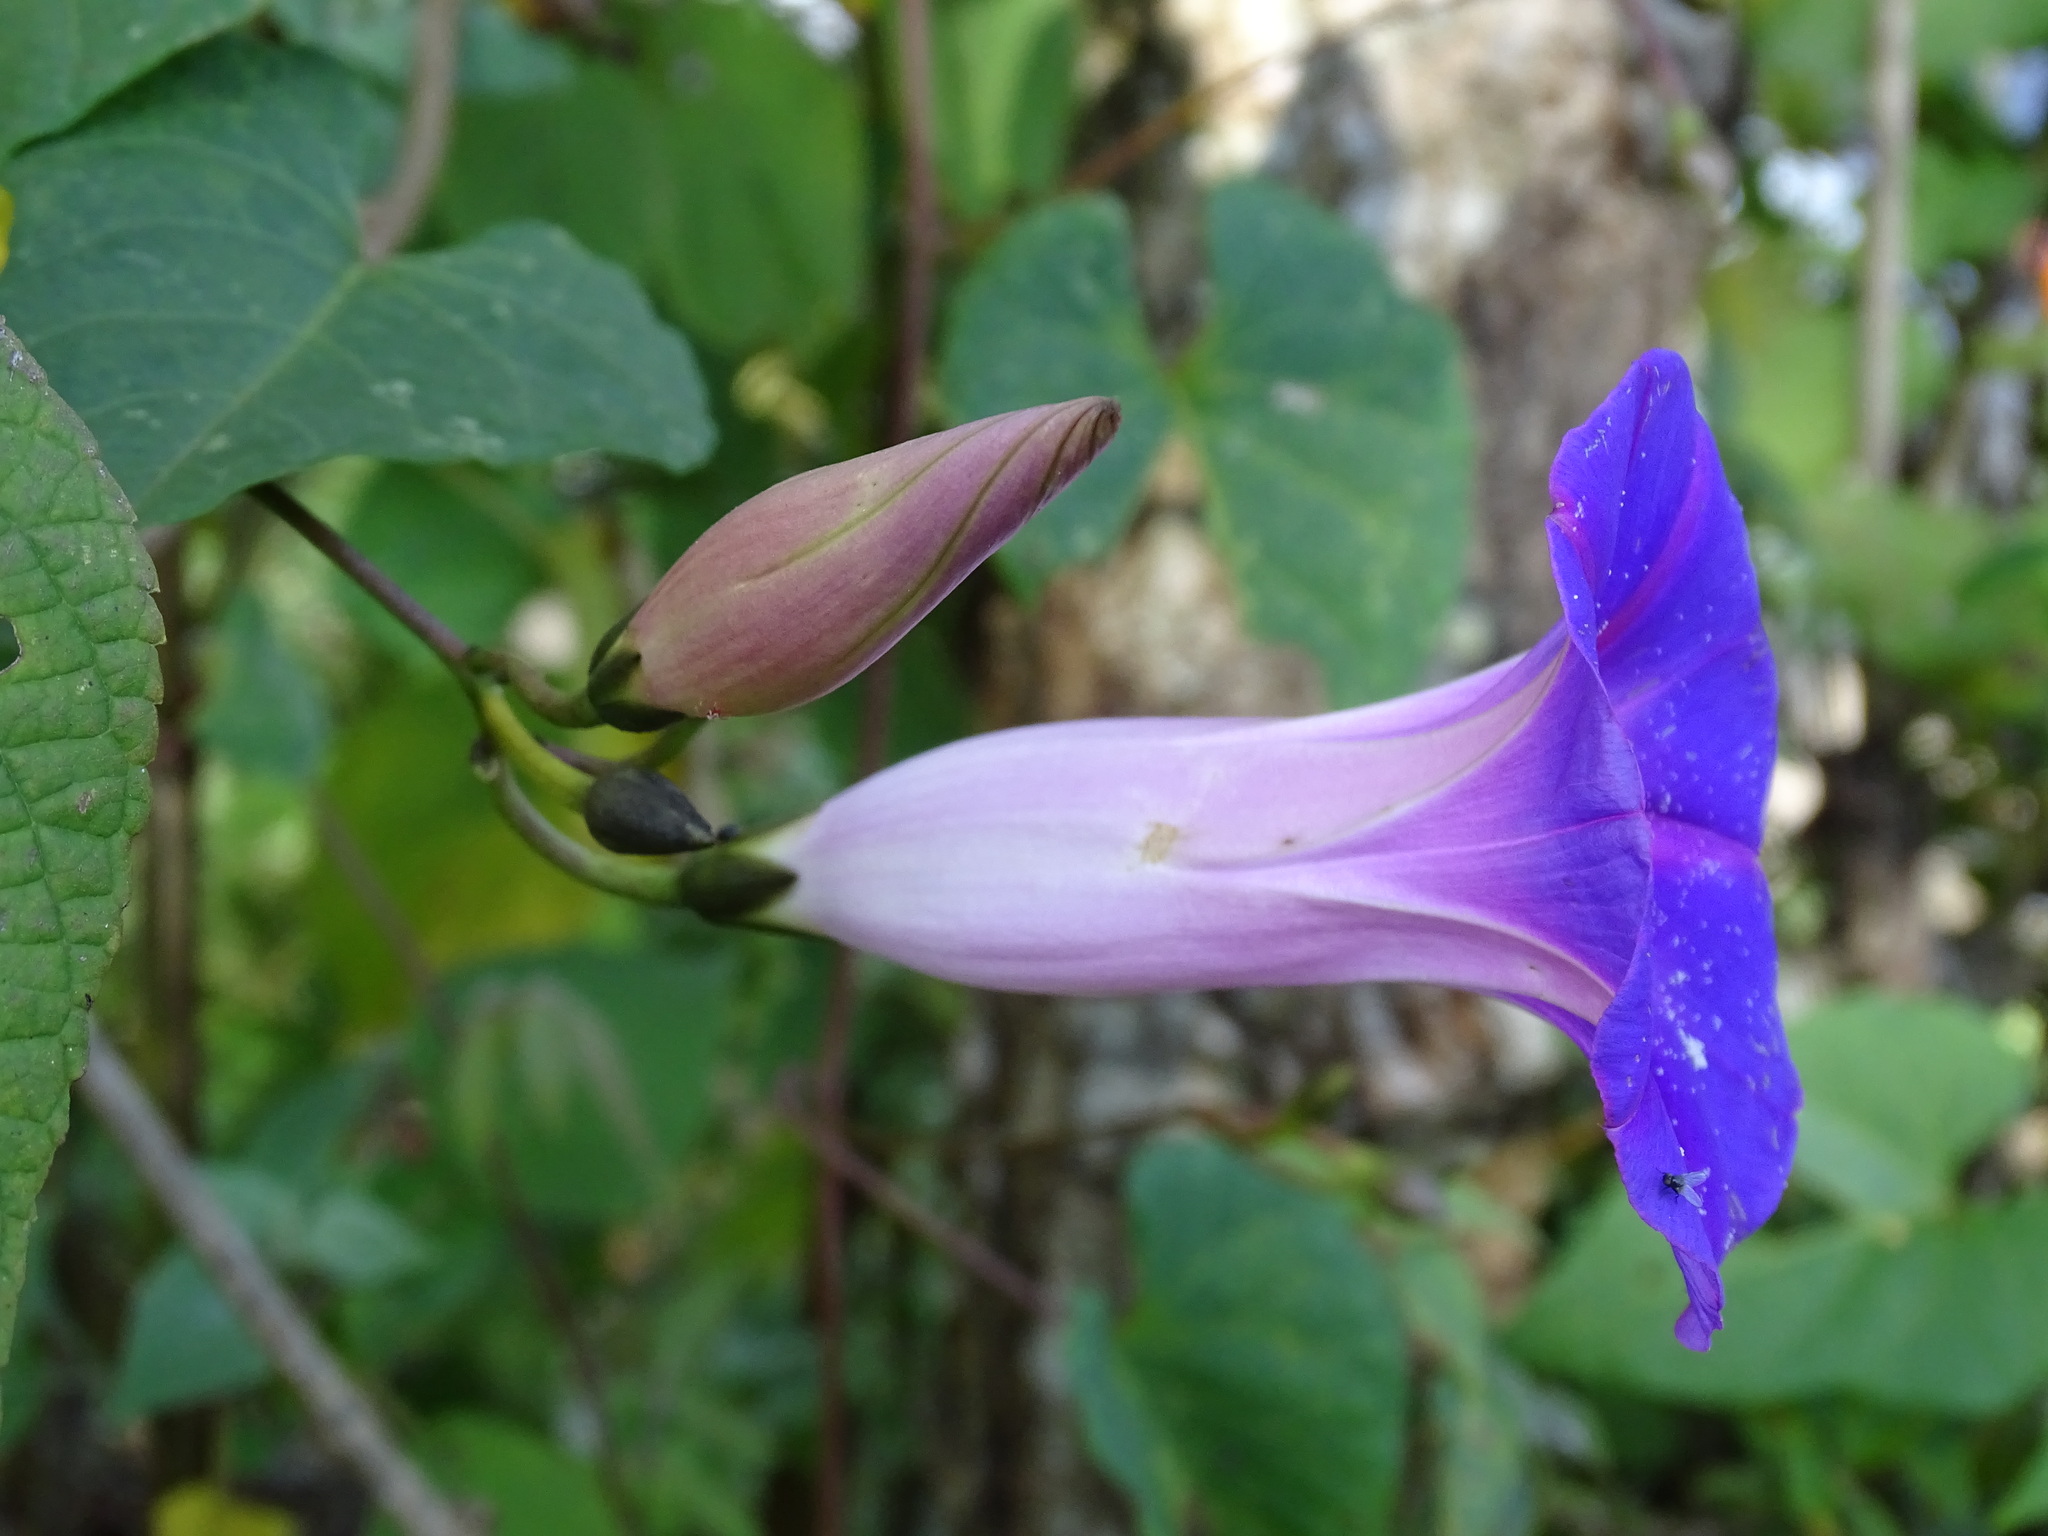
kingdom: Plantae
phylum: Tracheophyta
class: Magnoliopsida
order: Solanales
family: Convolvulaceae
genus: Ipomoea
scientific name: Ipomoea orizabensis
